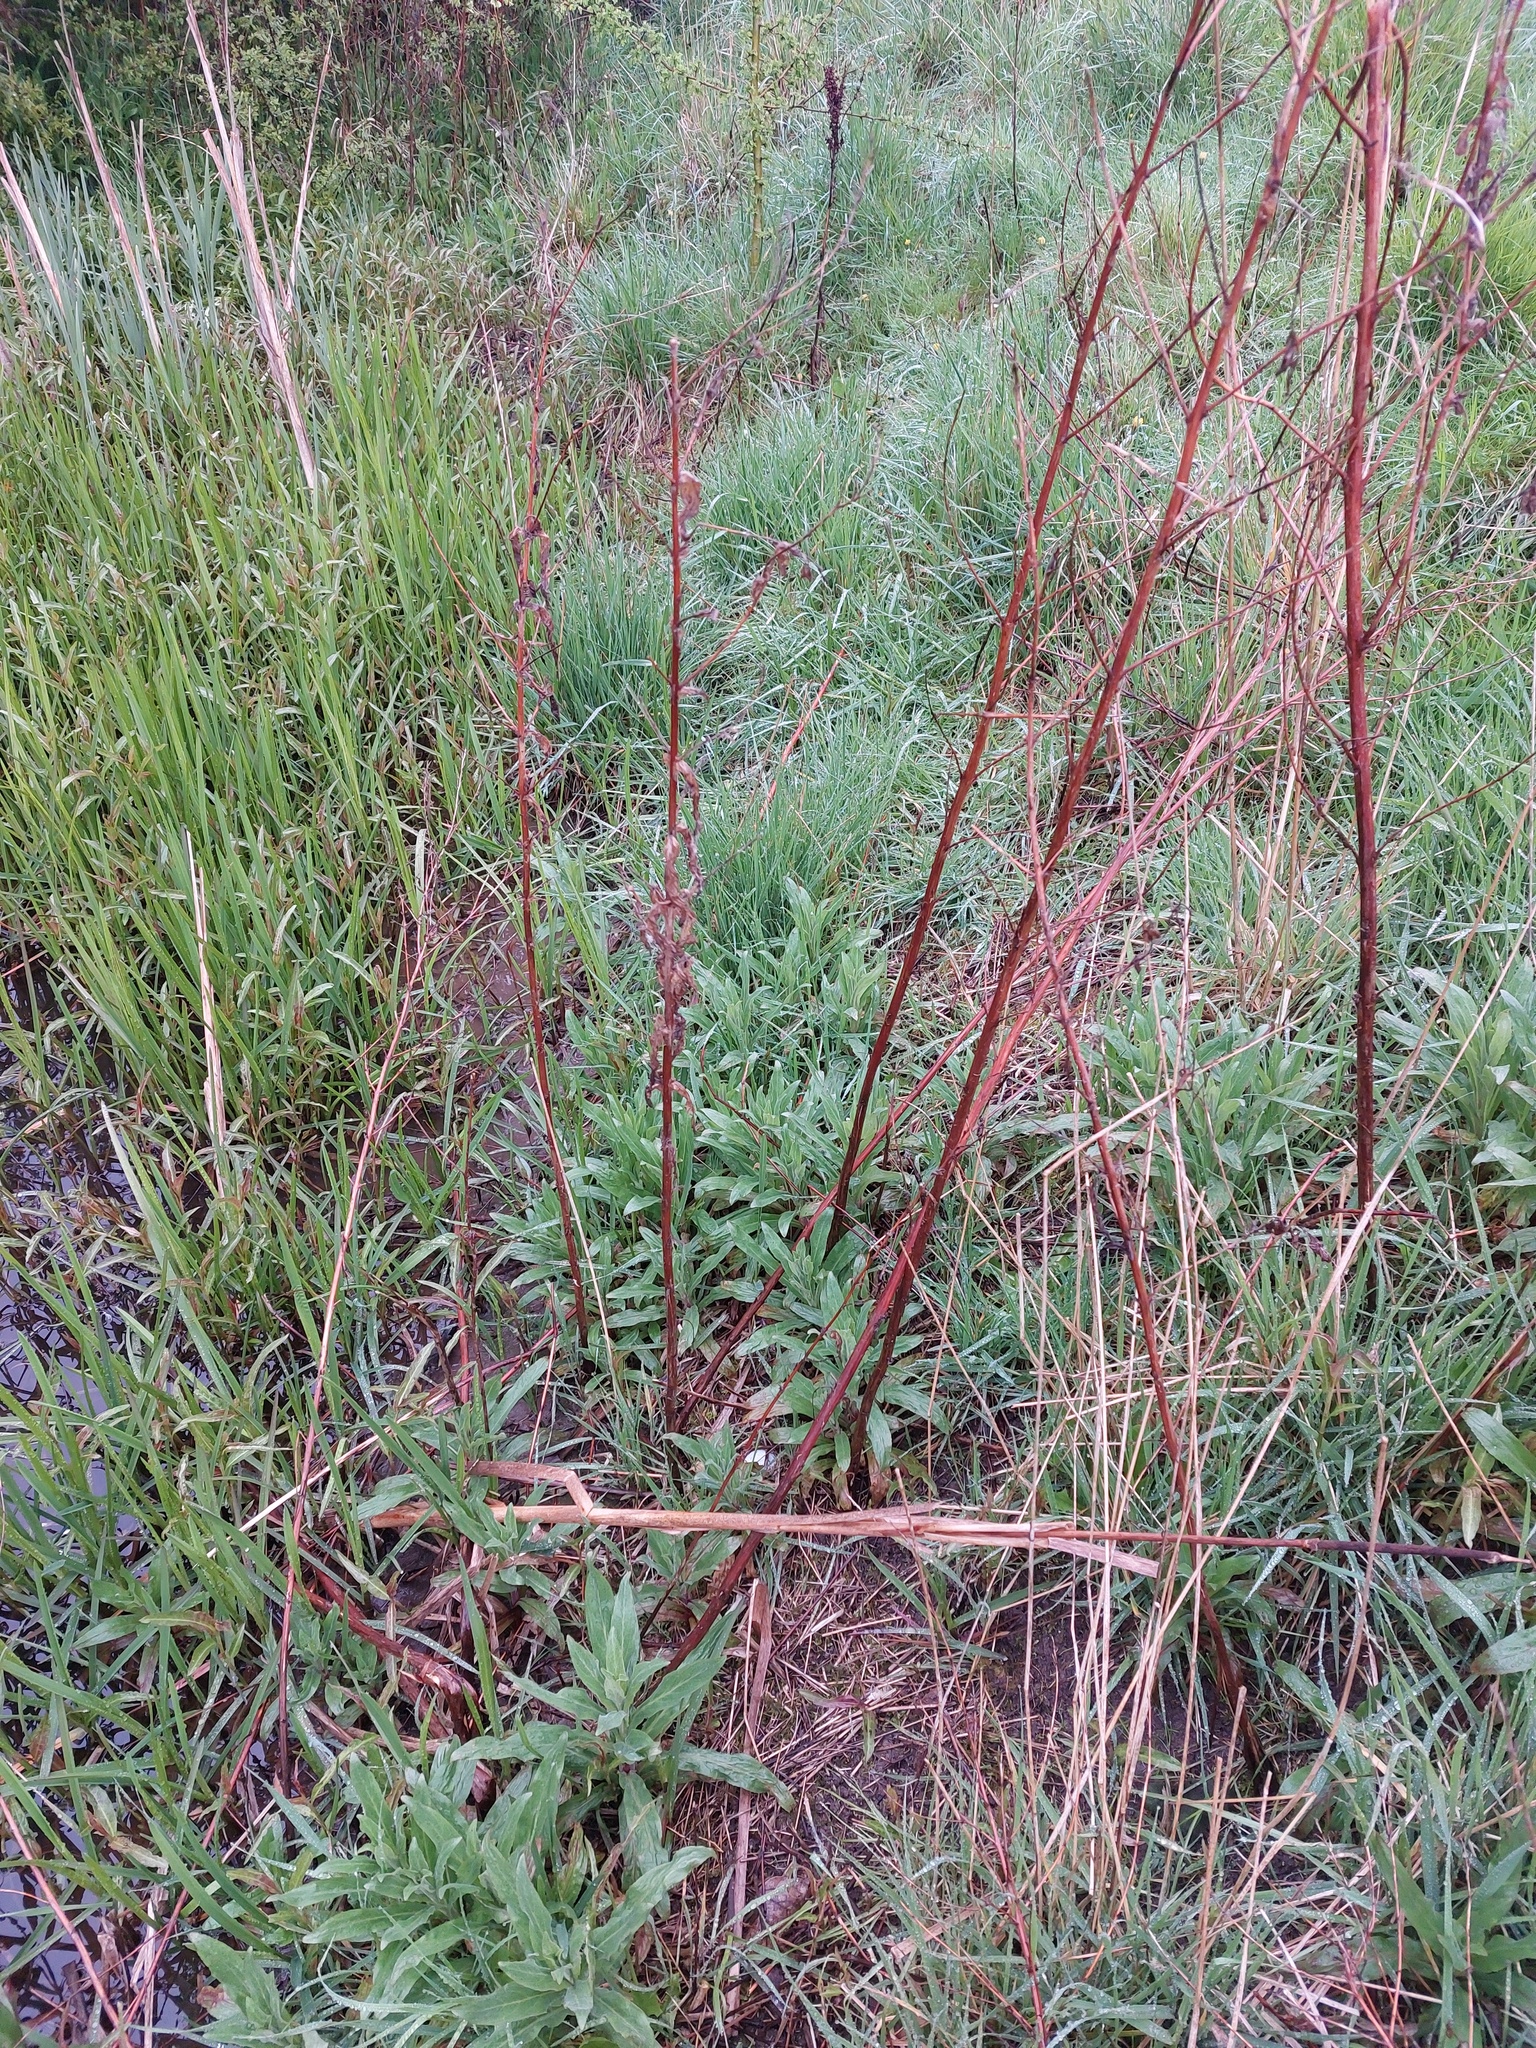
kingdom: Plantae
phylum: Tracheophyta
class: Magnoliopsida
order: Myrtales
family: Onagraceae
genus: Epilobium
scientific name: Epilobium hirsutum
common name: Great willowherb
